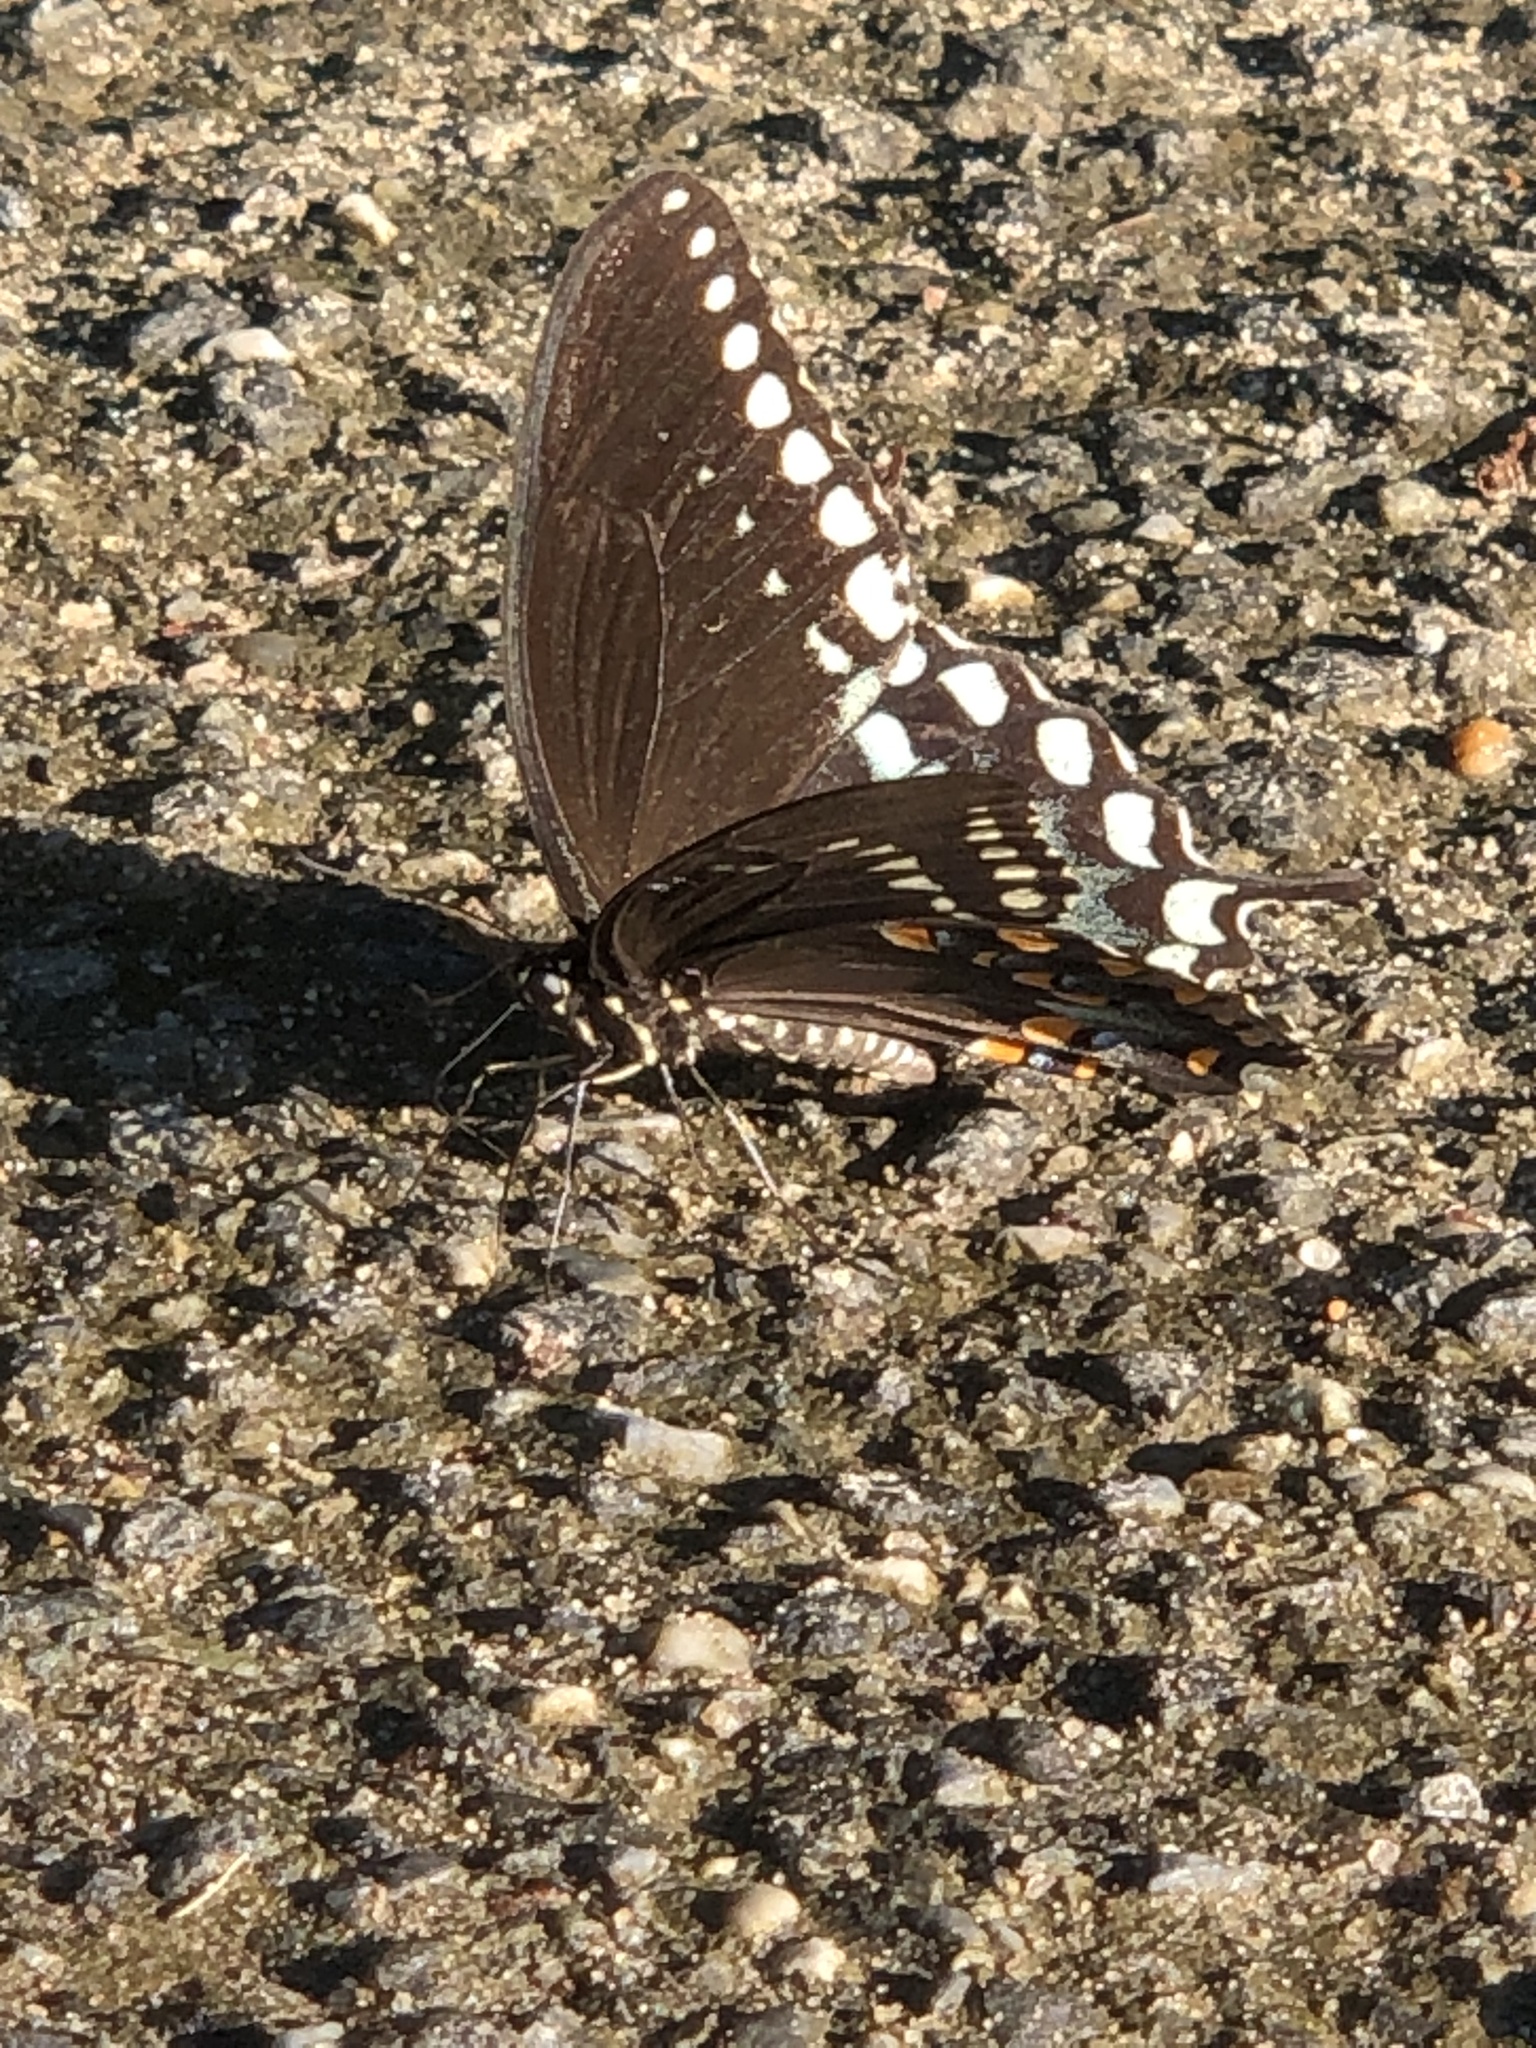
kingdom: Animalia
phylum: Arthropoda
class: Insecta
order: Lepidoptera
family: Papilionidae
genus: Papilio
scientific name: Papilio troilus
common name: Spicebush swallowtail
